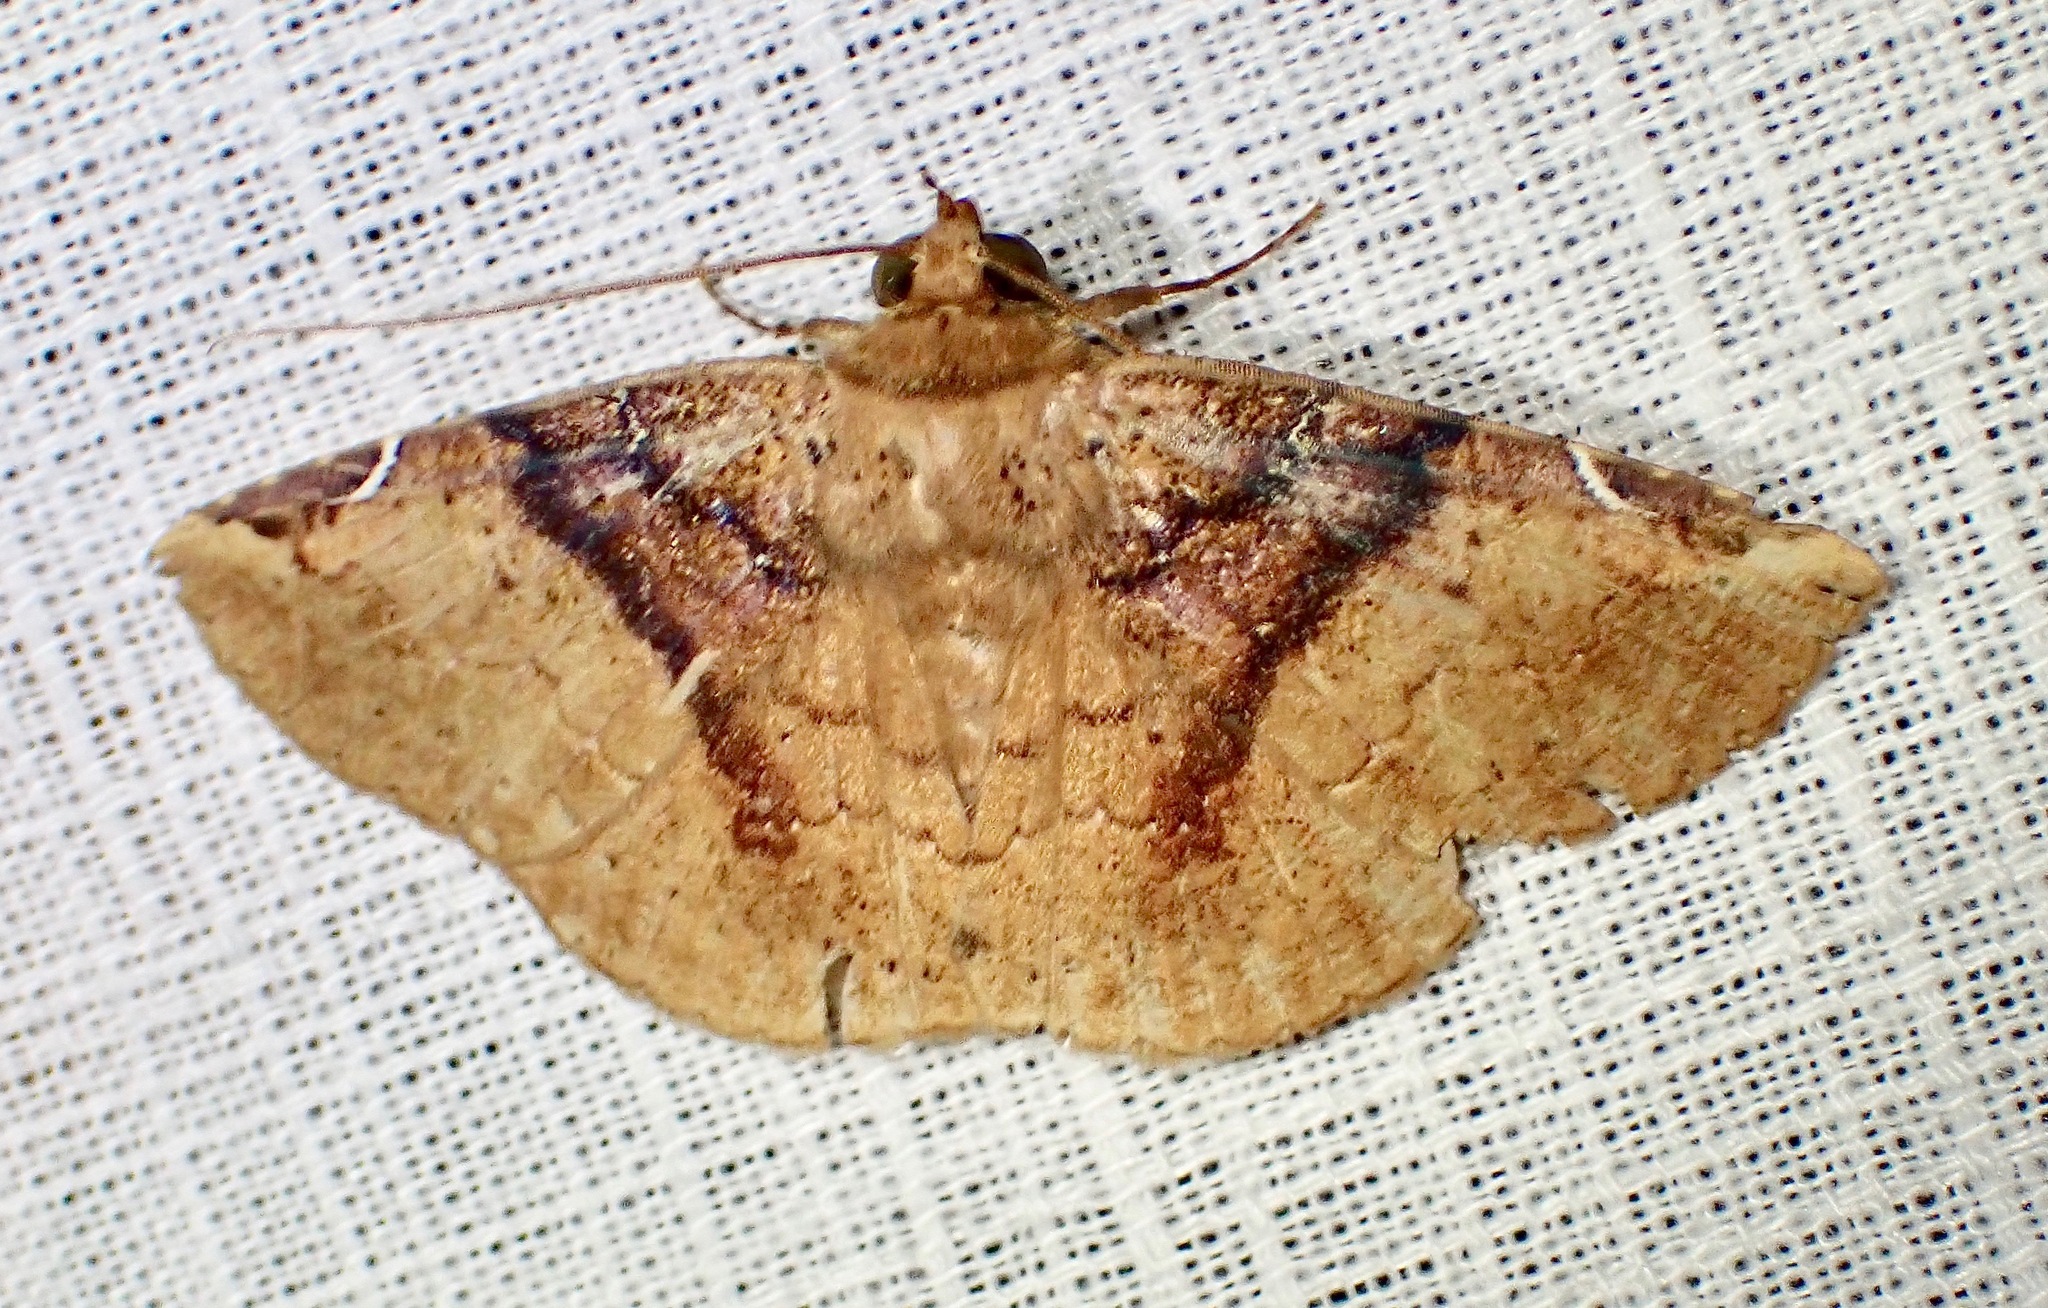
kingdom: Animalia
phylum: Arthropoda
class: Insecta
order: Lepidoptera
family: Erebidae
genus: Antiblemma
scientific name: Antiblemma patifaciens
